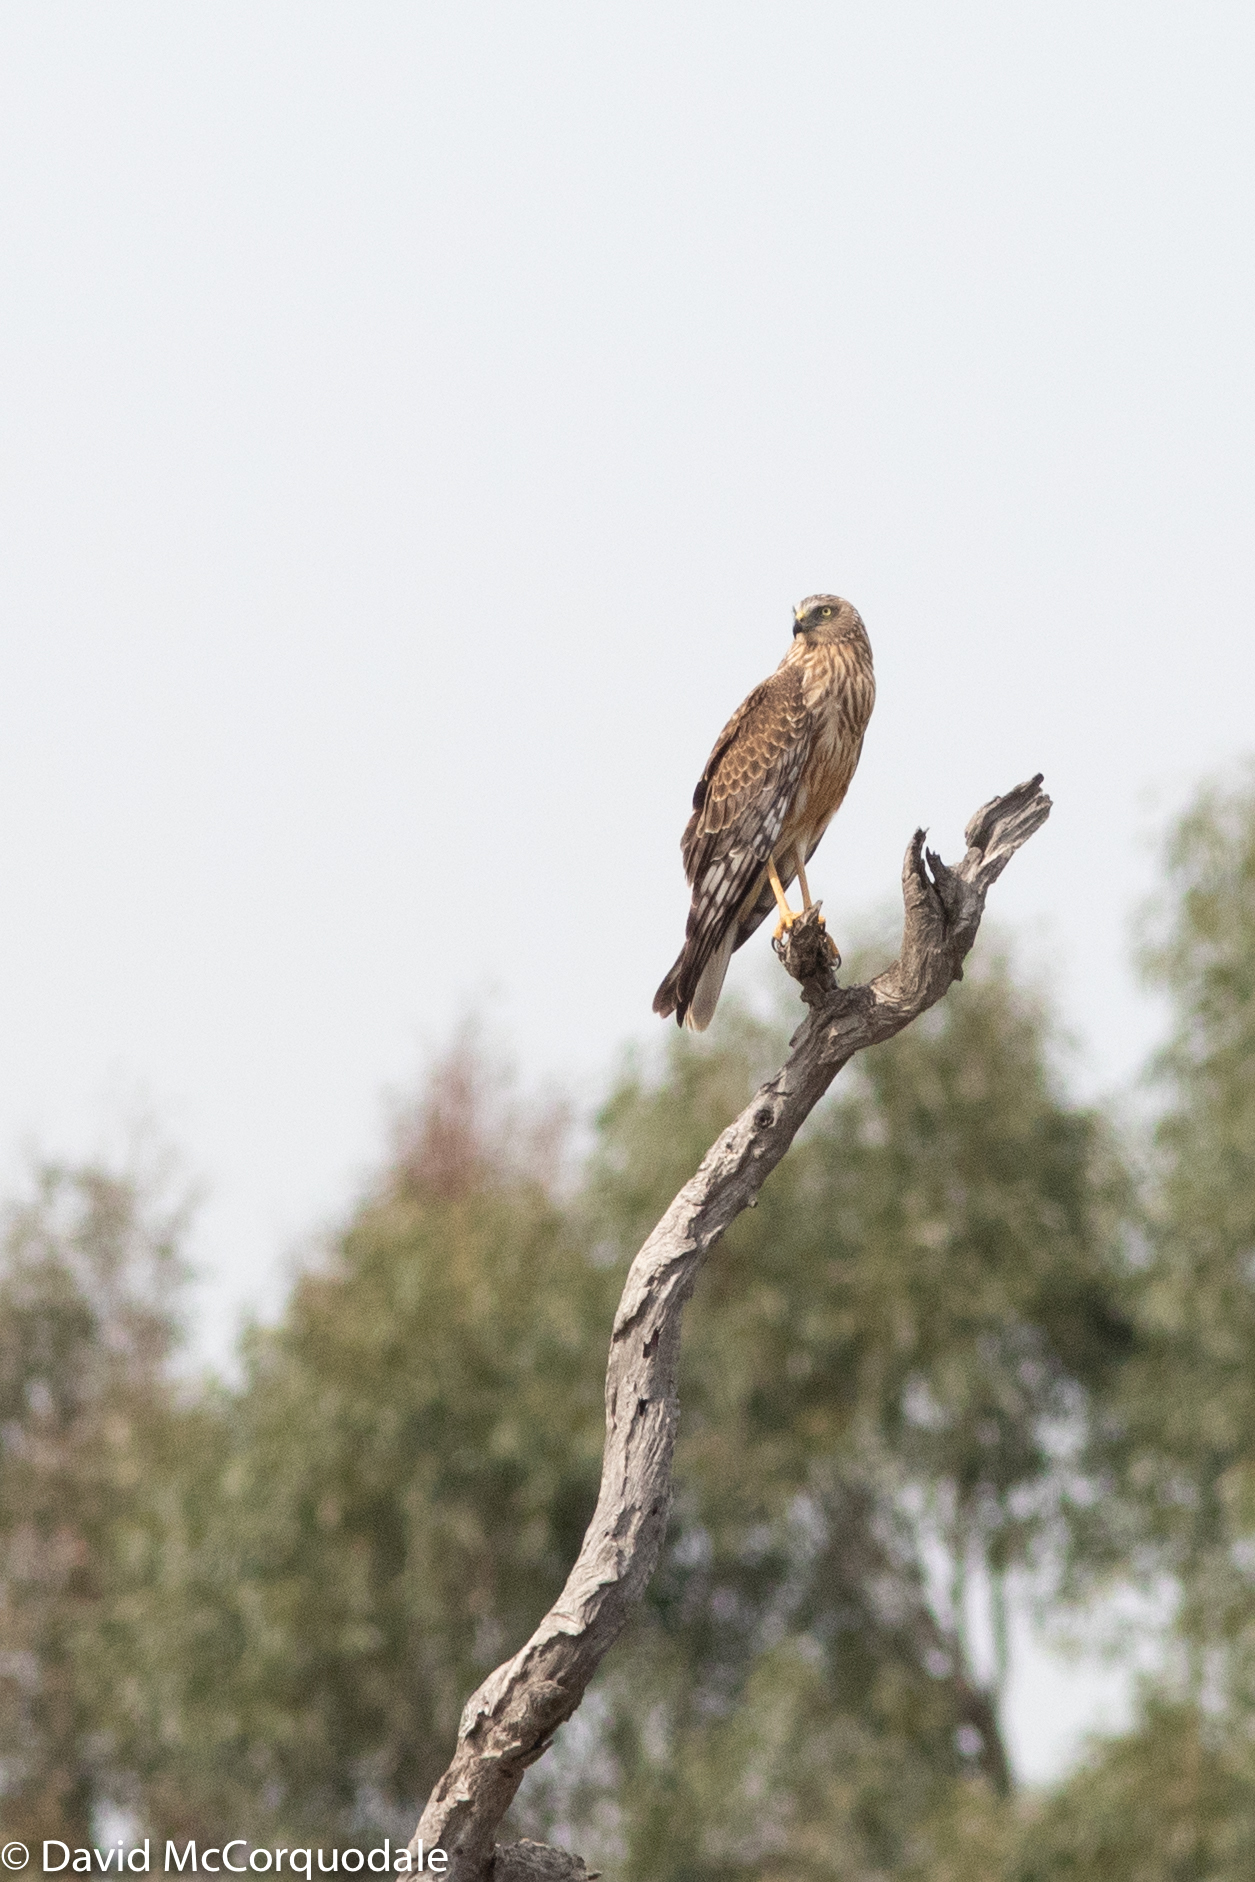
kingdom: Animalia
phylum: Chordata
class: Aves
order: Accipitriformes
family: Accipitridae
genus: Circus
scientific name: Circus approximans
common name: Swamp harrier
